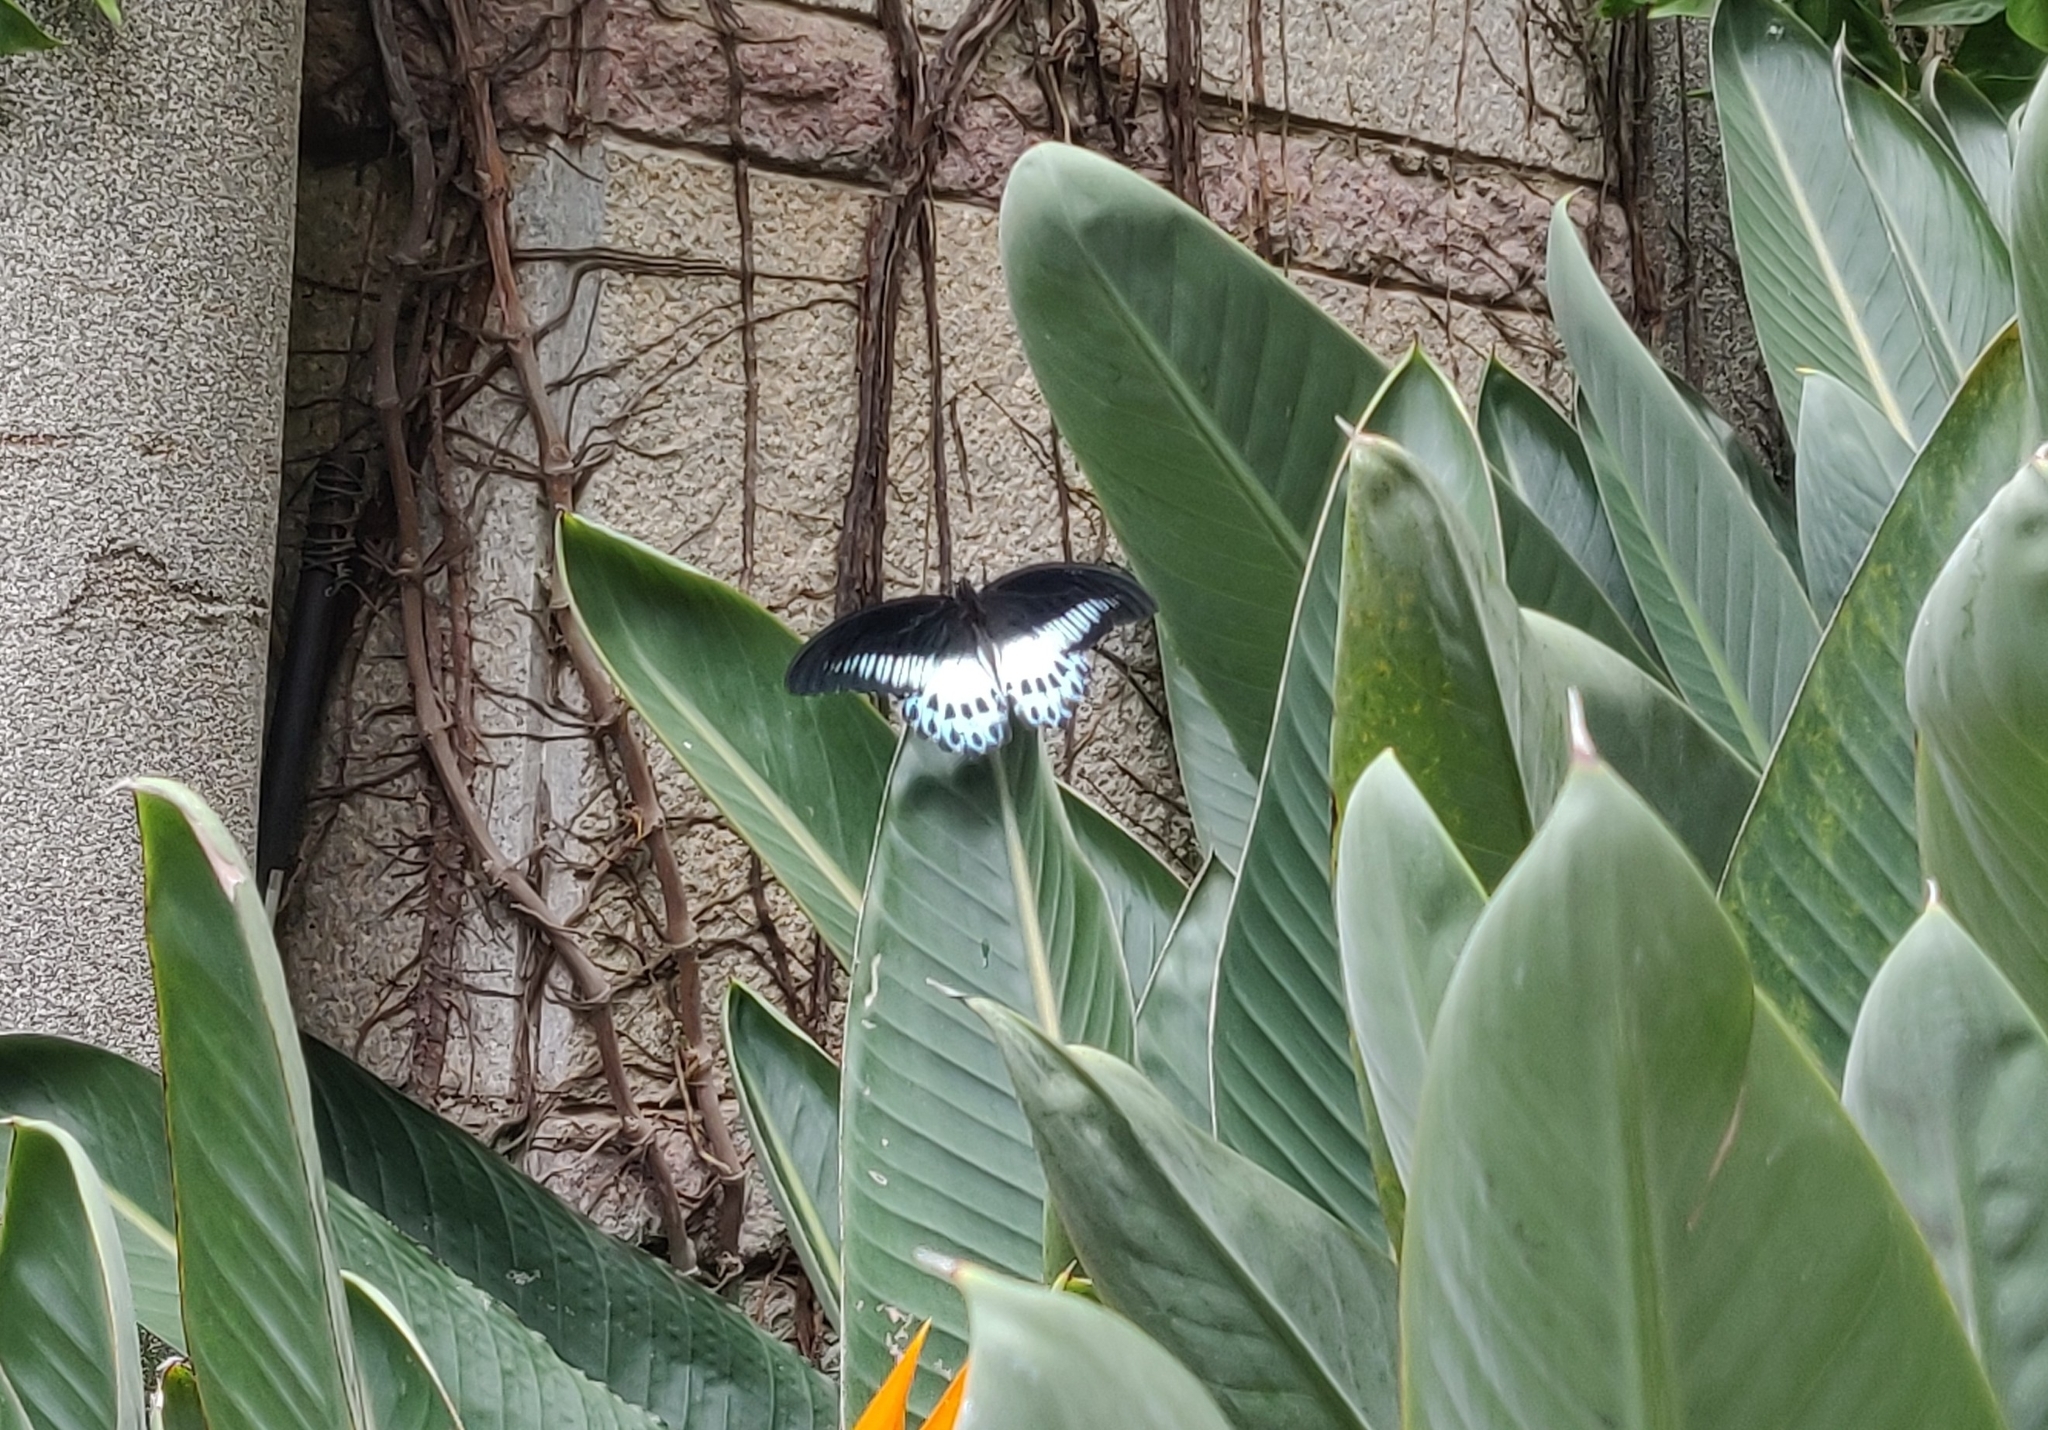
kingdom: Animalia
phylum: Arthropoda
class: Insecta
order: Lepidoptera
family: Papilionidae
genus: Papilio
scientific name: Papilio memnon
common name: Great mormon
